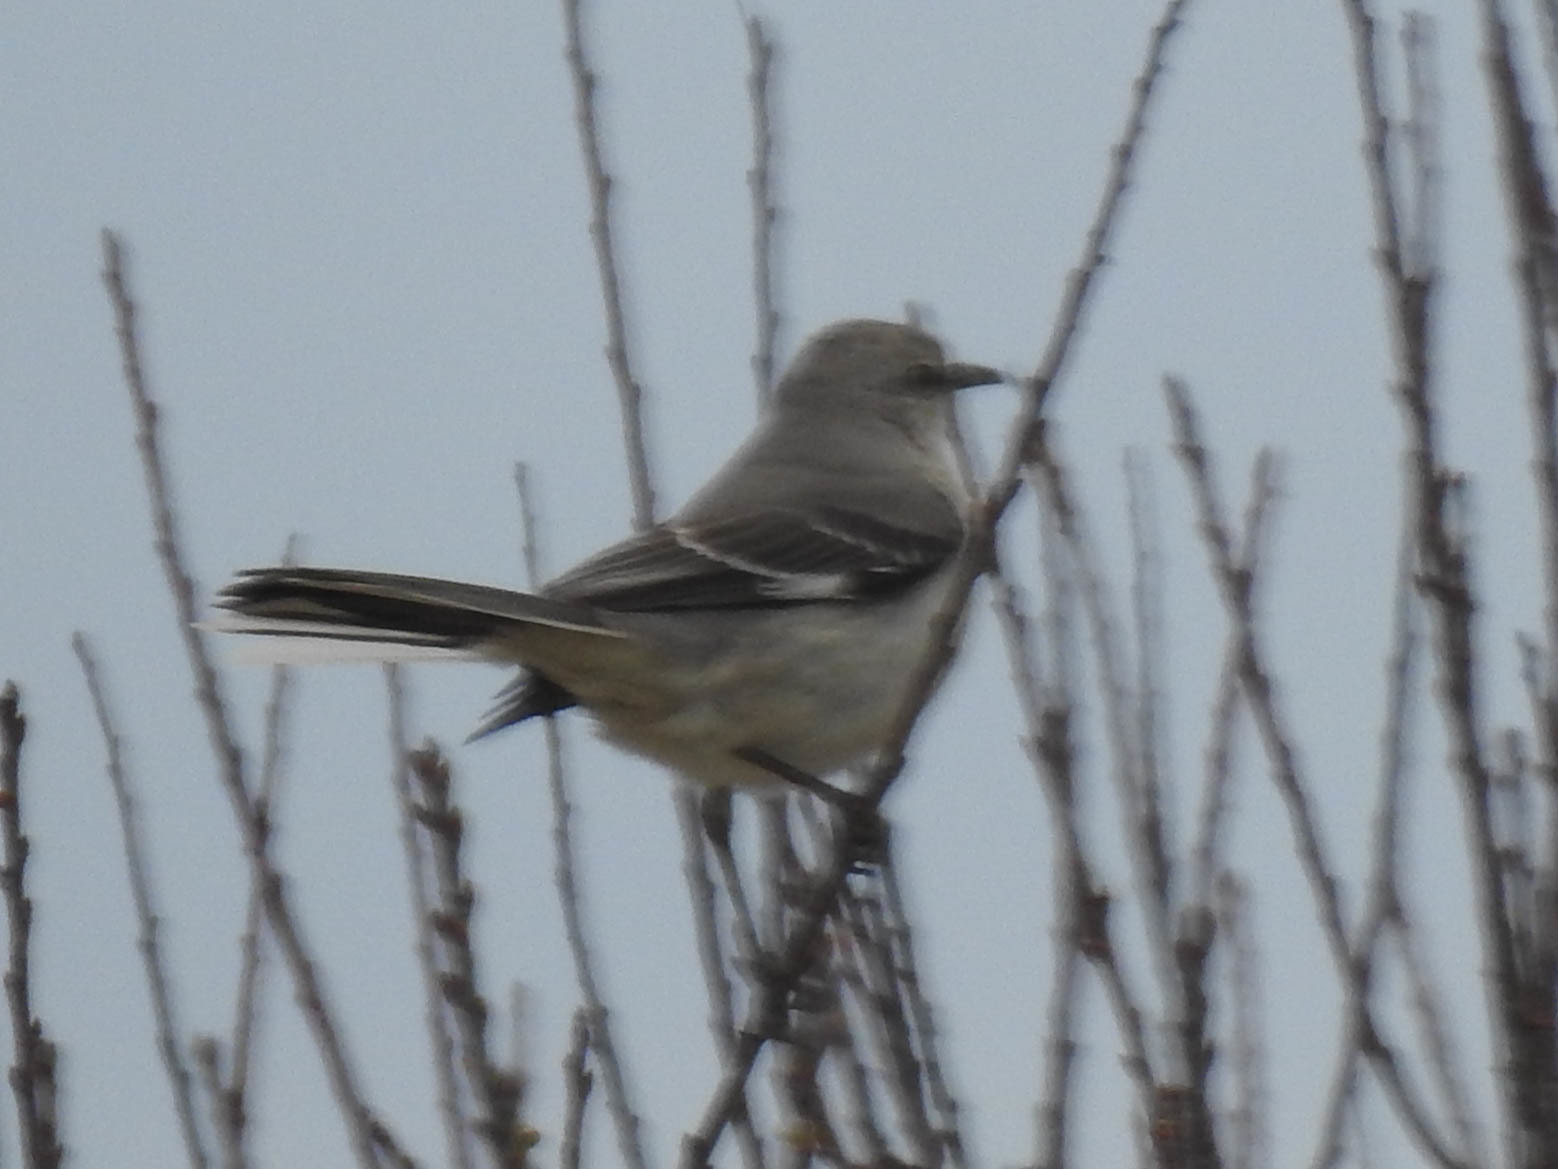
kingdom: Animalia
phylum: Chordata
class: Aves
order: Passeriformes
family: Mimidae
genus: Mimus
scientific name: Mimus polyglottos
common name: Northern mockingbird
